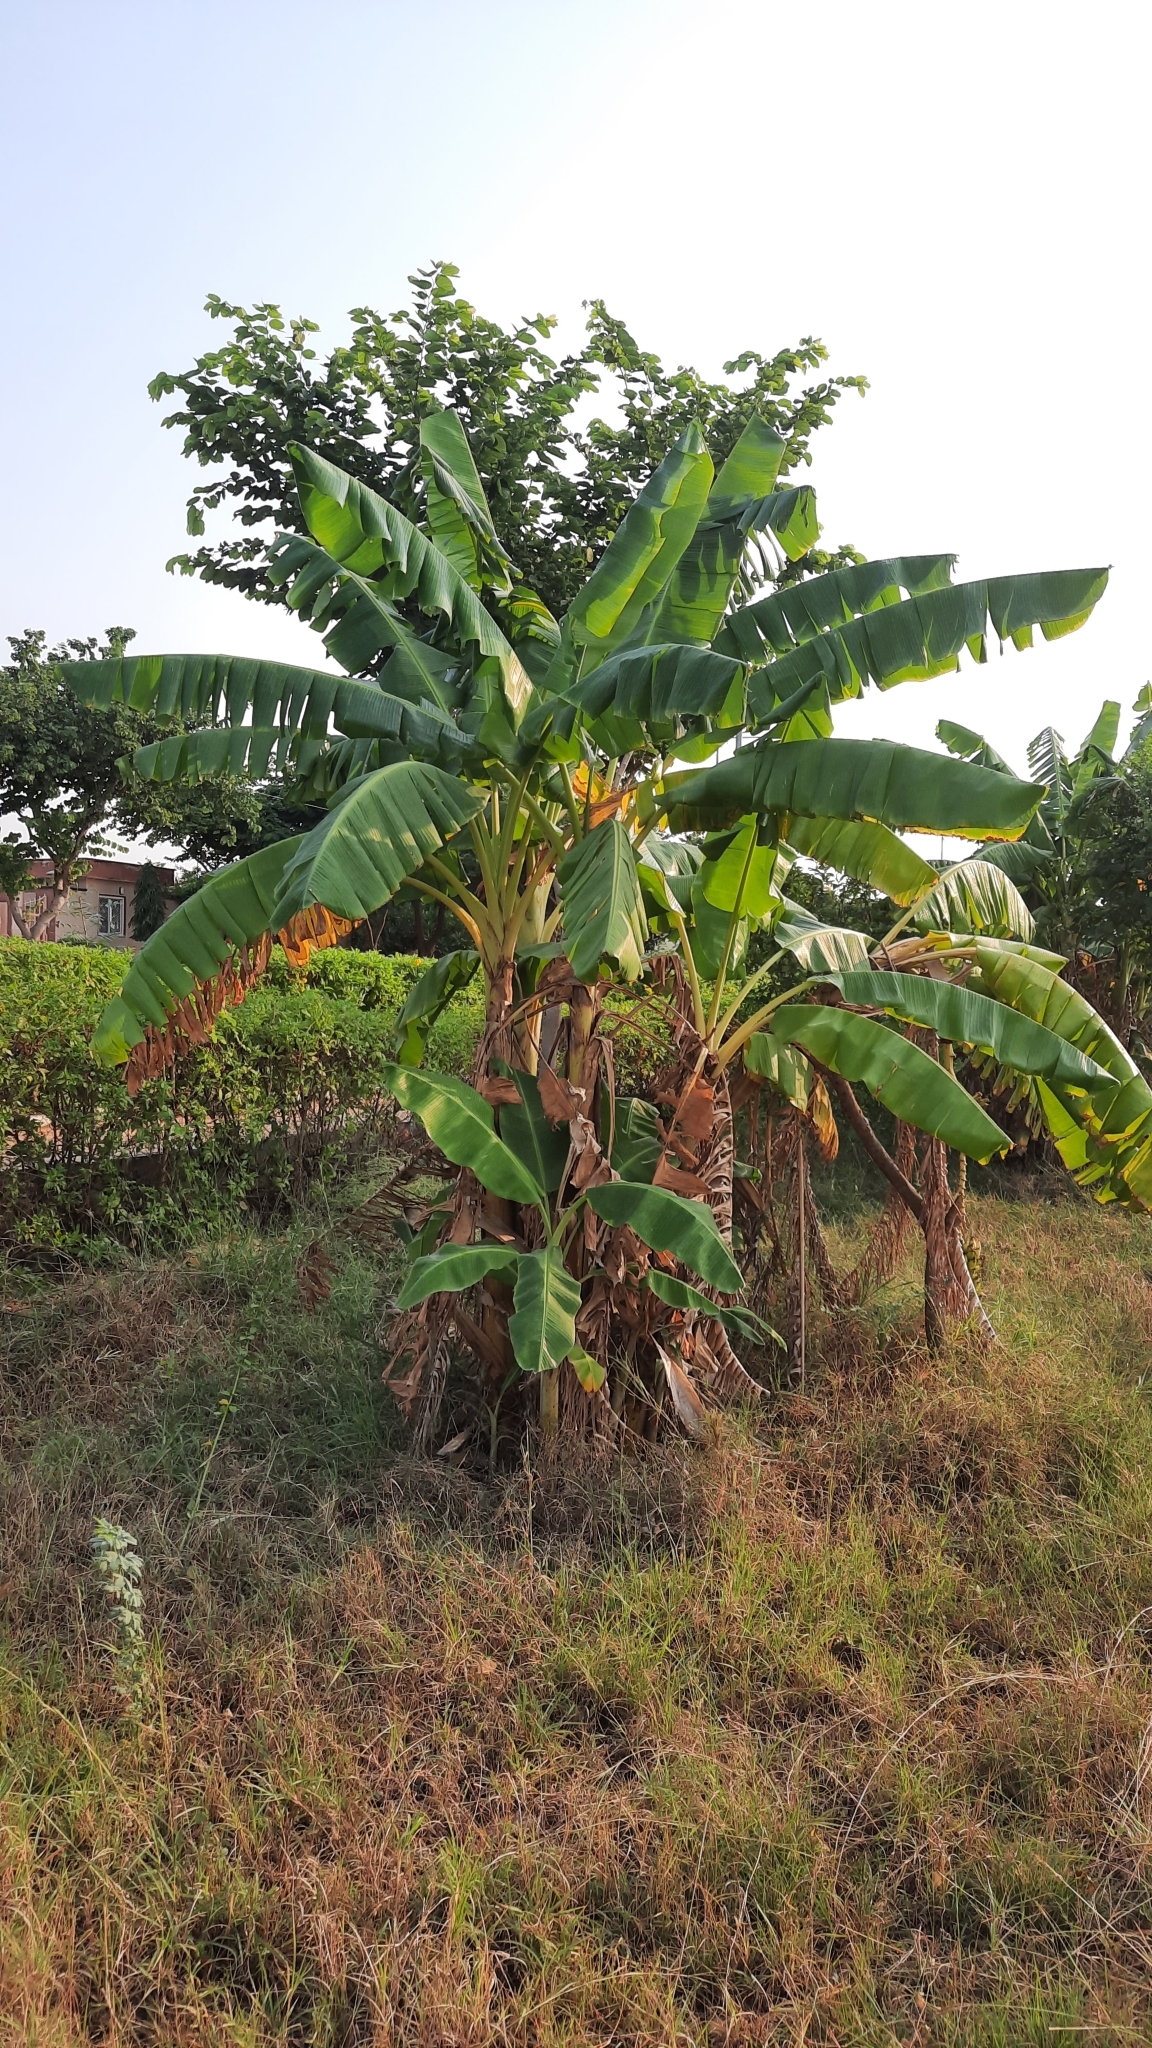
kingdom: Plantae
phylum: Tracheophyta
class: Liliopsida
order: Zingiberales
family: Musaceae
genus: Musa
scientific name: Musa paradisiaca
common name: French plantain
